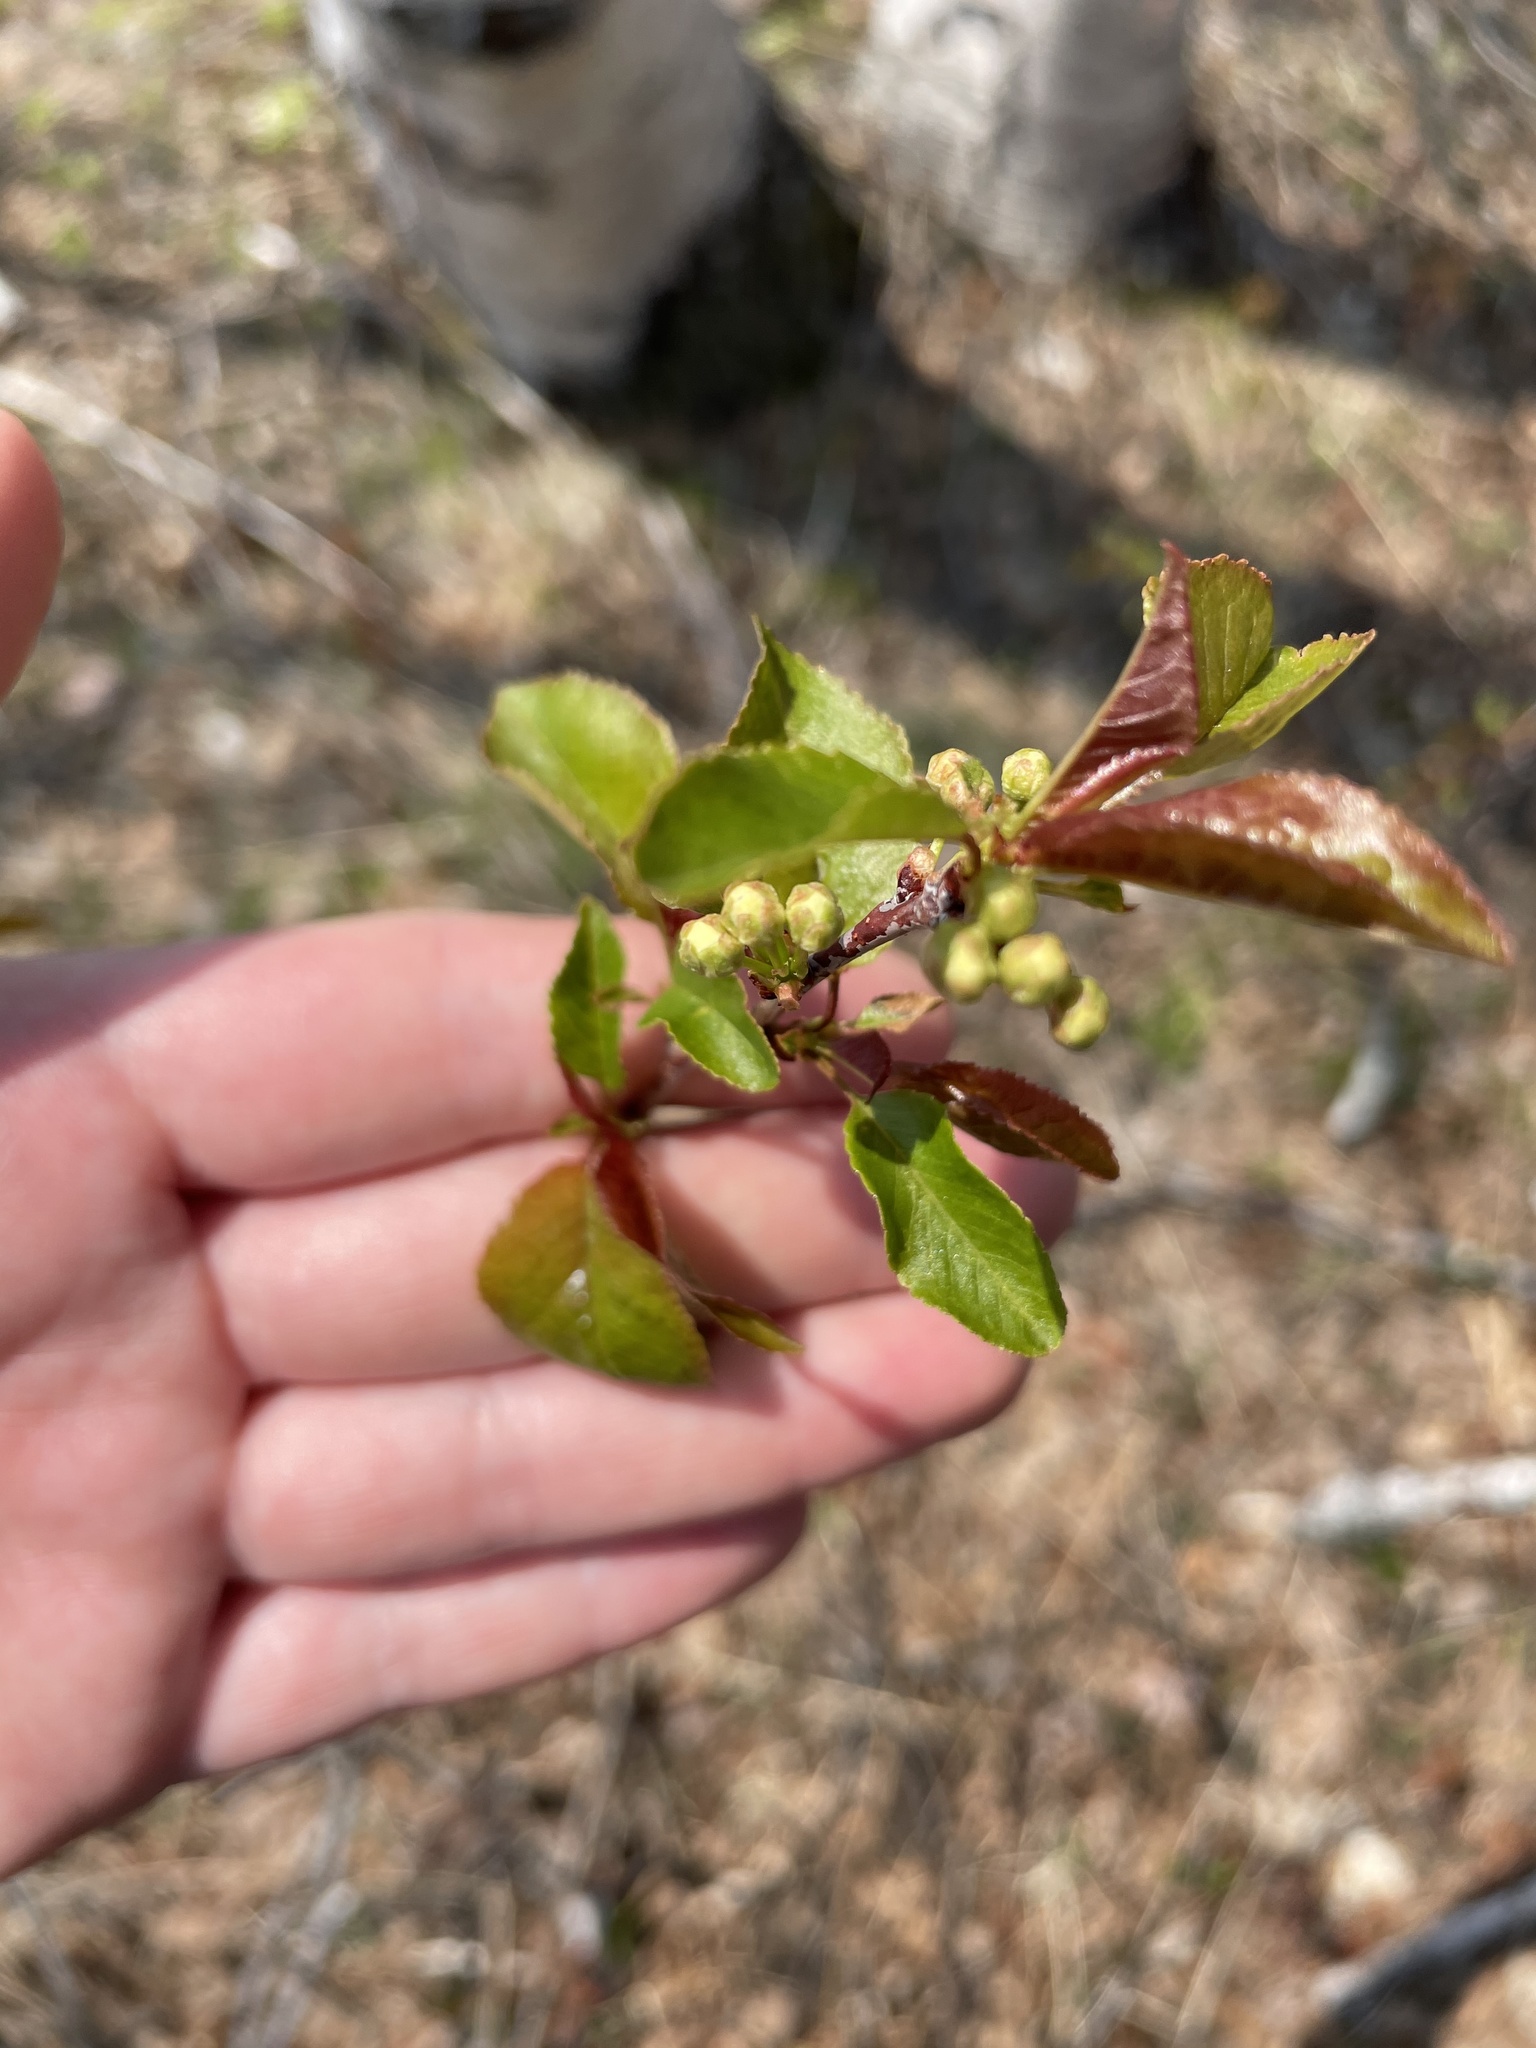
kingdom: Plantae
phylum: Tracheophyta
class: Magnoliopsida
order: Rosales
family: Rosaceae
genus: Prunus
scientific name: Prunus pensylvanica
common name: Pin cherry
